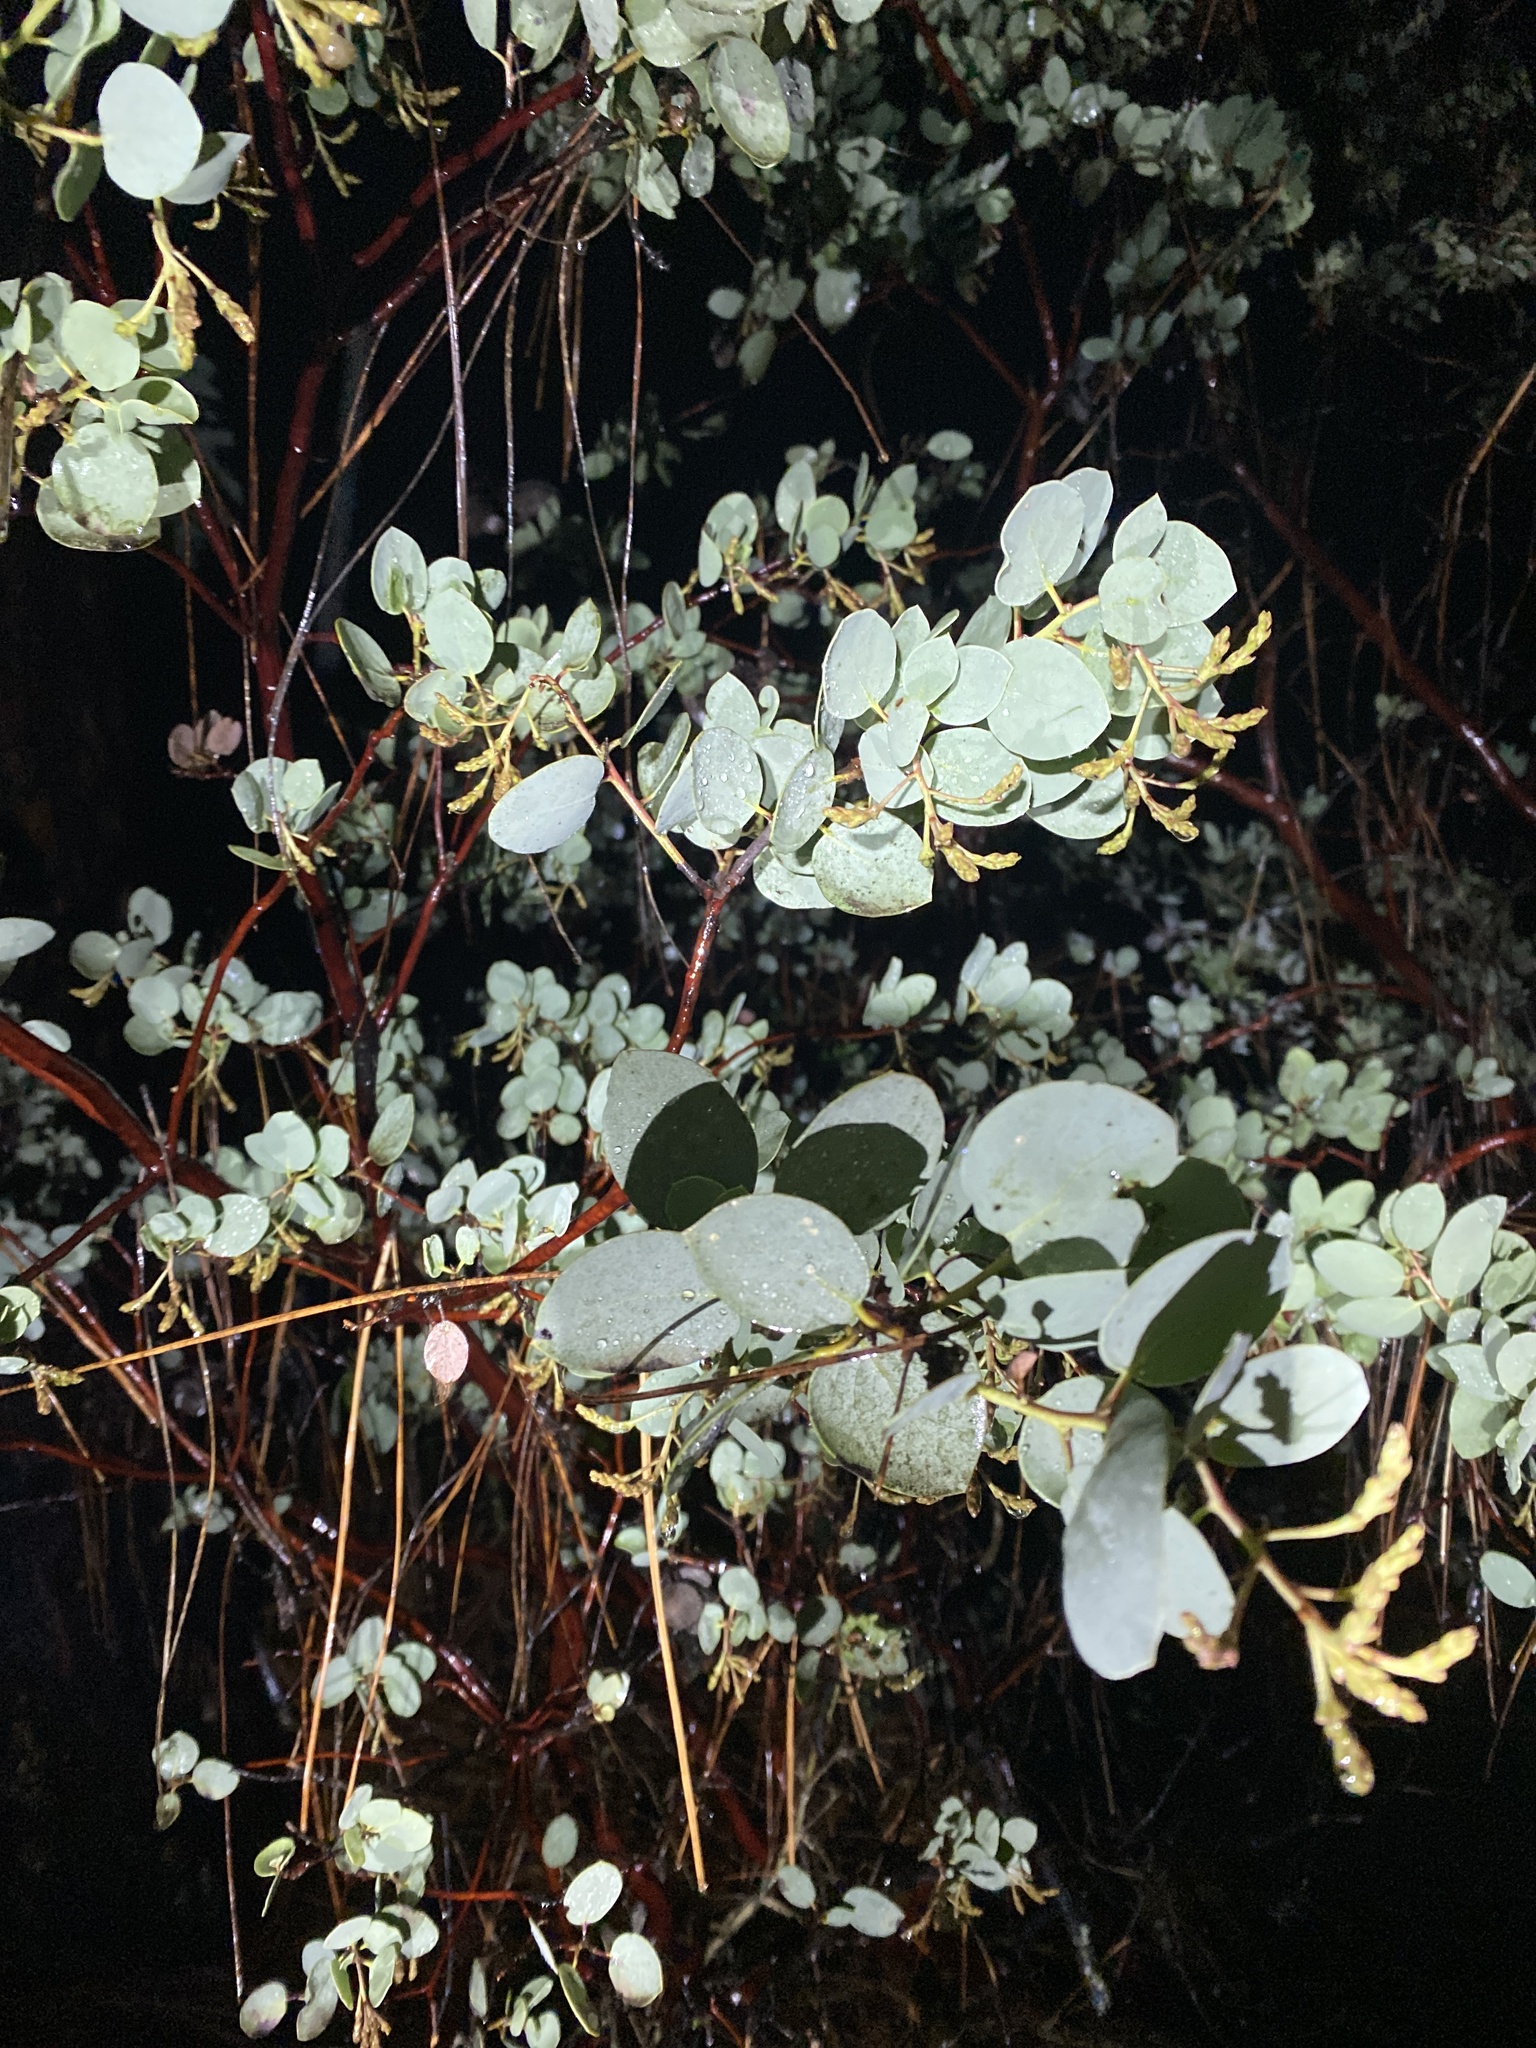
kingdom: Plantae
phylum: Tracheophyta
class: Magnoliopsida
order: Ericales
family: Ericaceae
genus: Arctostaphylos
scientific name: Arctostaphylos viscida
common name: White-leaf manzanita
